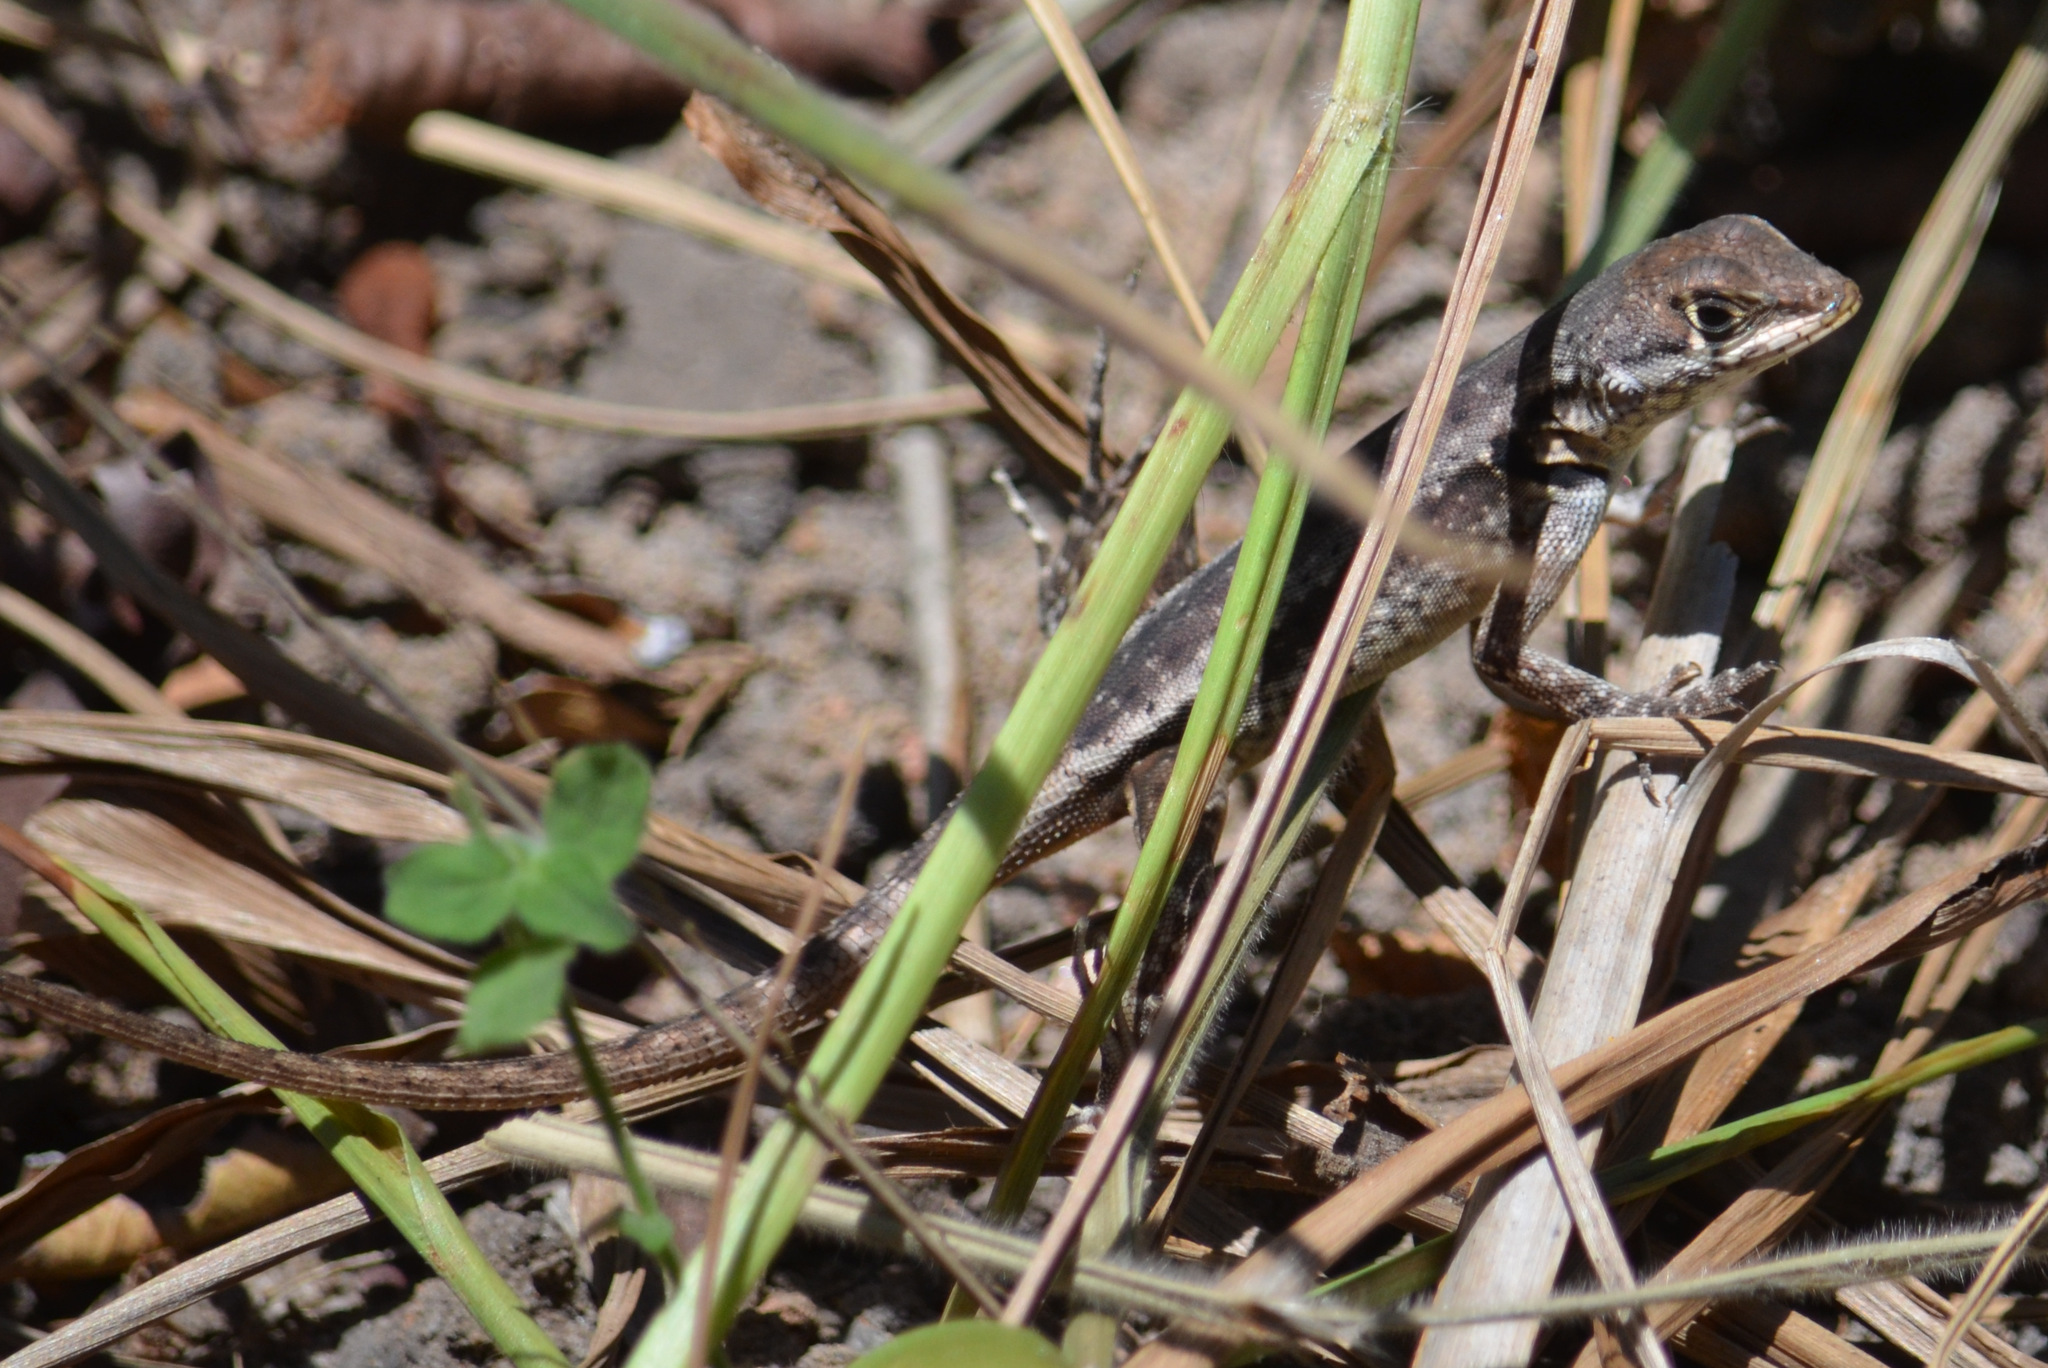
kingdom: Animalia
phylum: Chordata
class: Squamata
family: Tropiduridae
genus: Tropidurus
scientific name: Tropidurus hygomi
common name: Reinhardt's lava lizard
